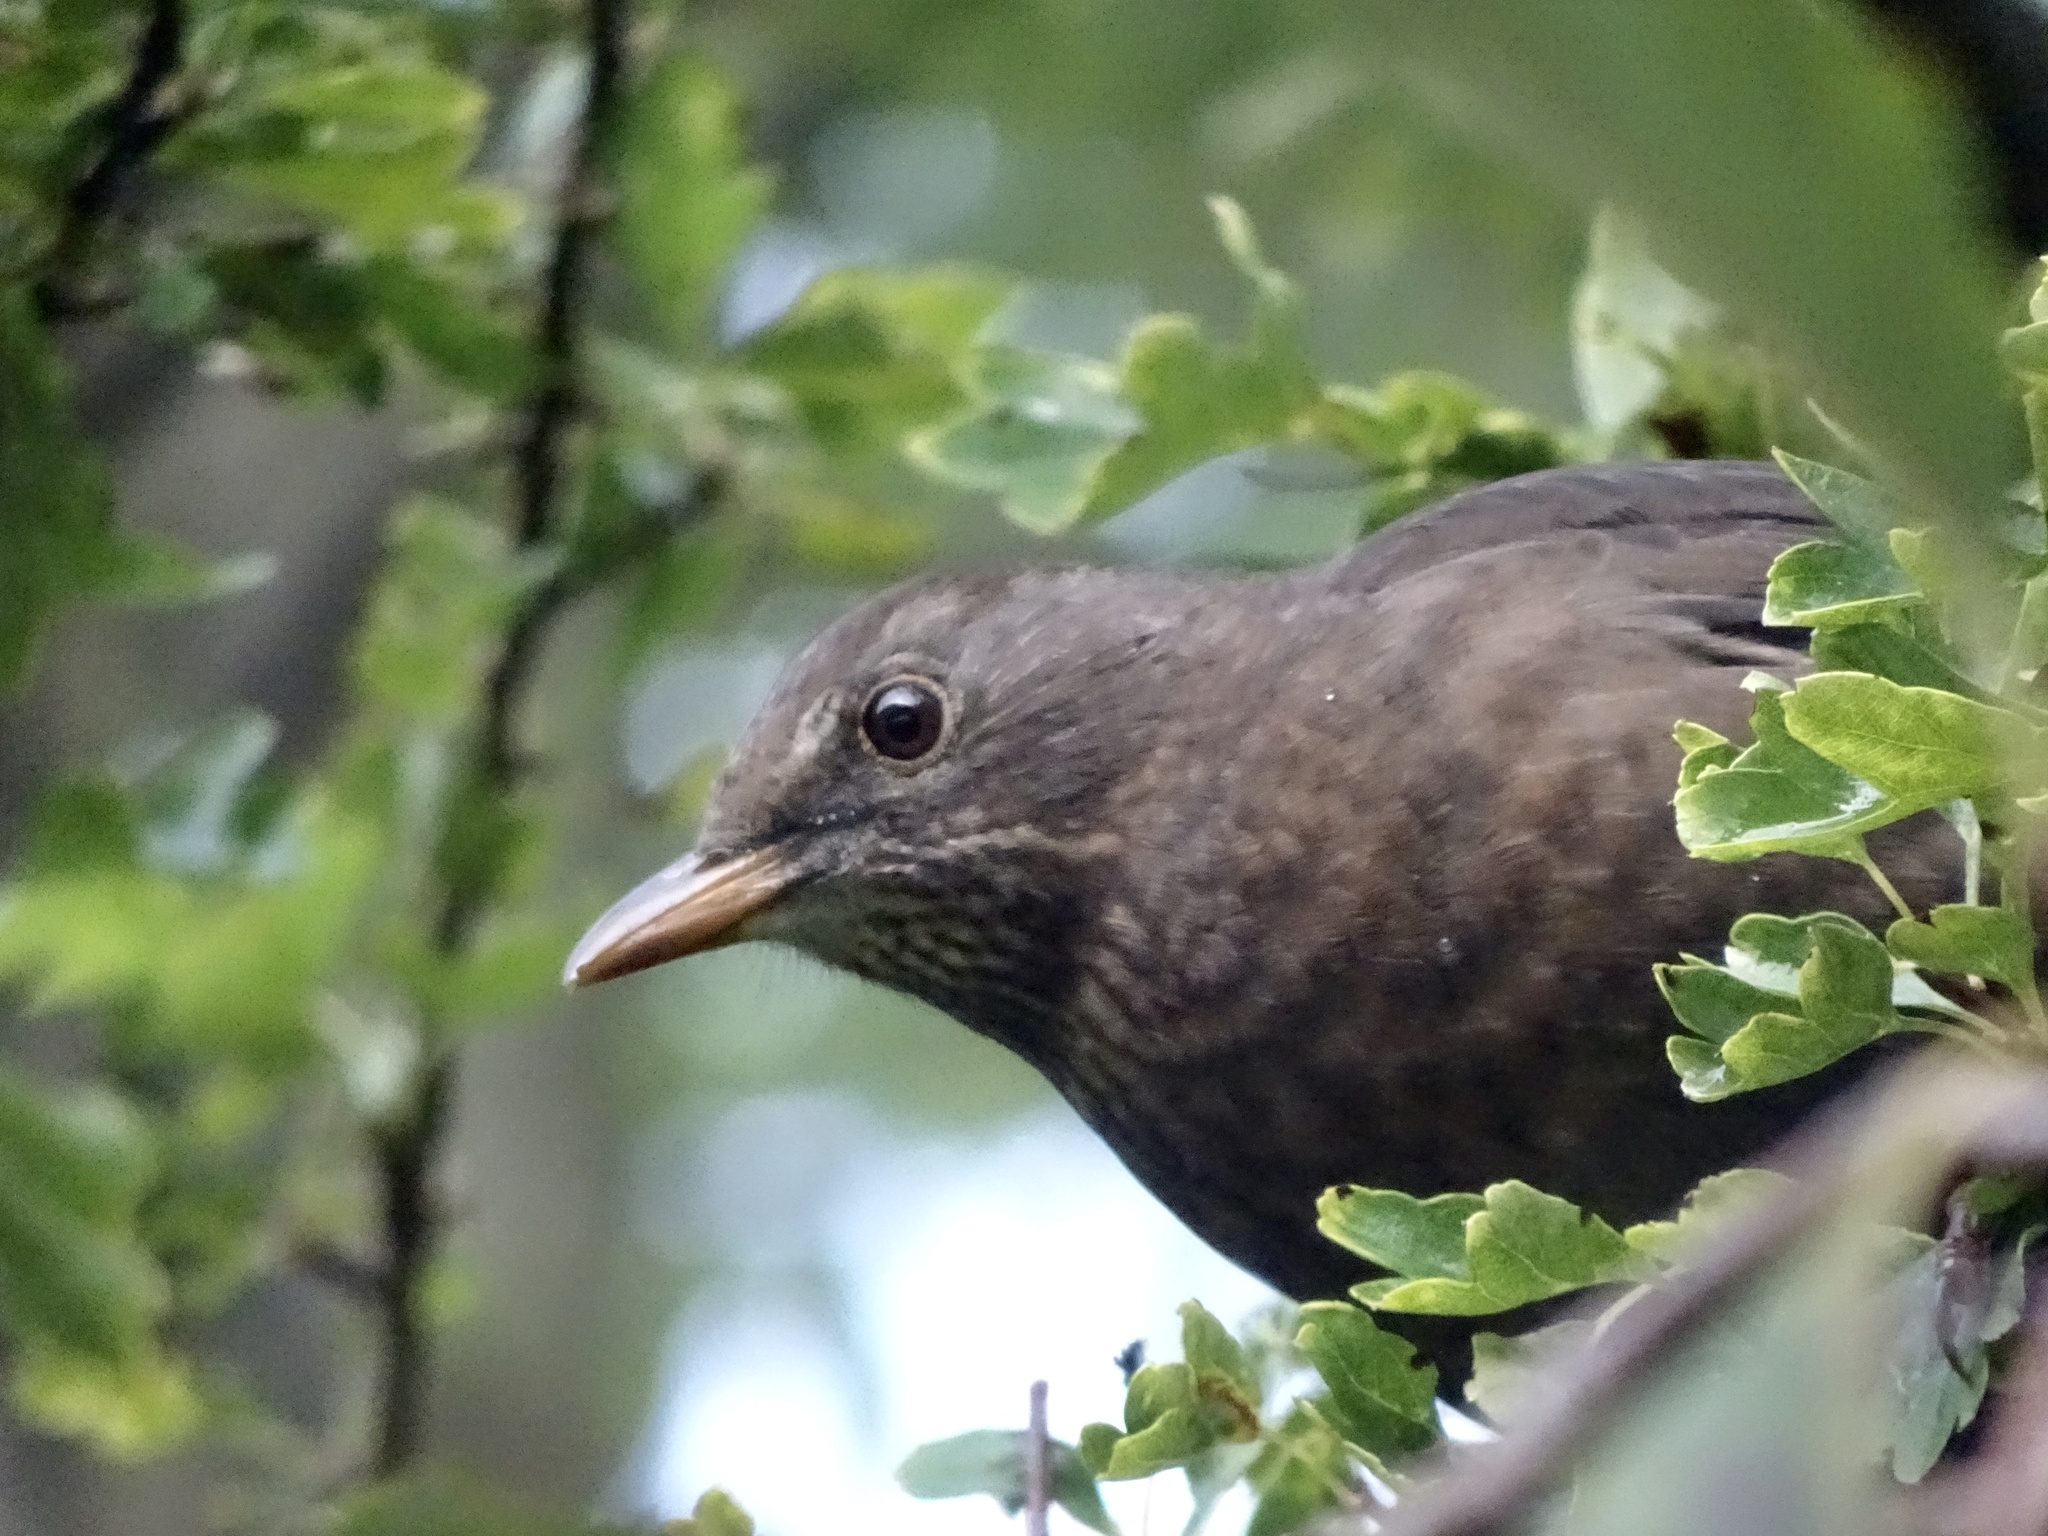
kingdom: Animalia
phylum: Chordata
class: Aves
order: Passeriformes
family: Turdidae
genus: Turdus
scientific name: Turdus merula
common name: Common blackbird
